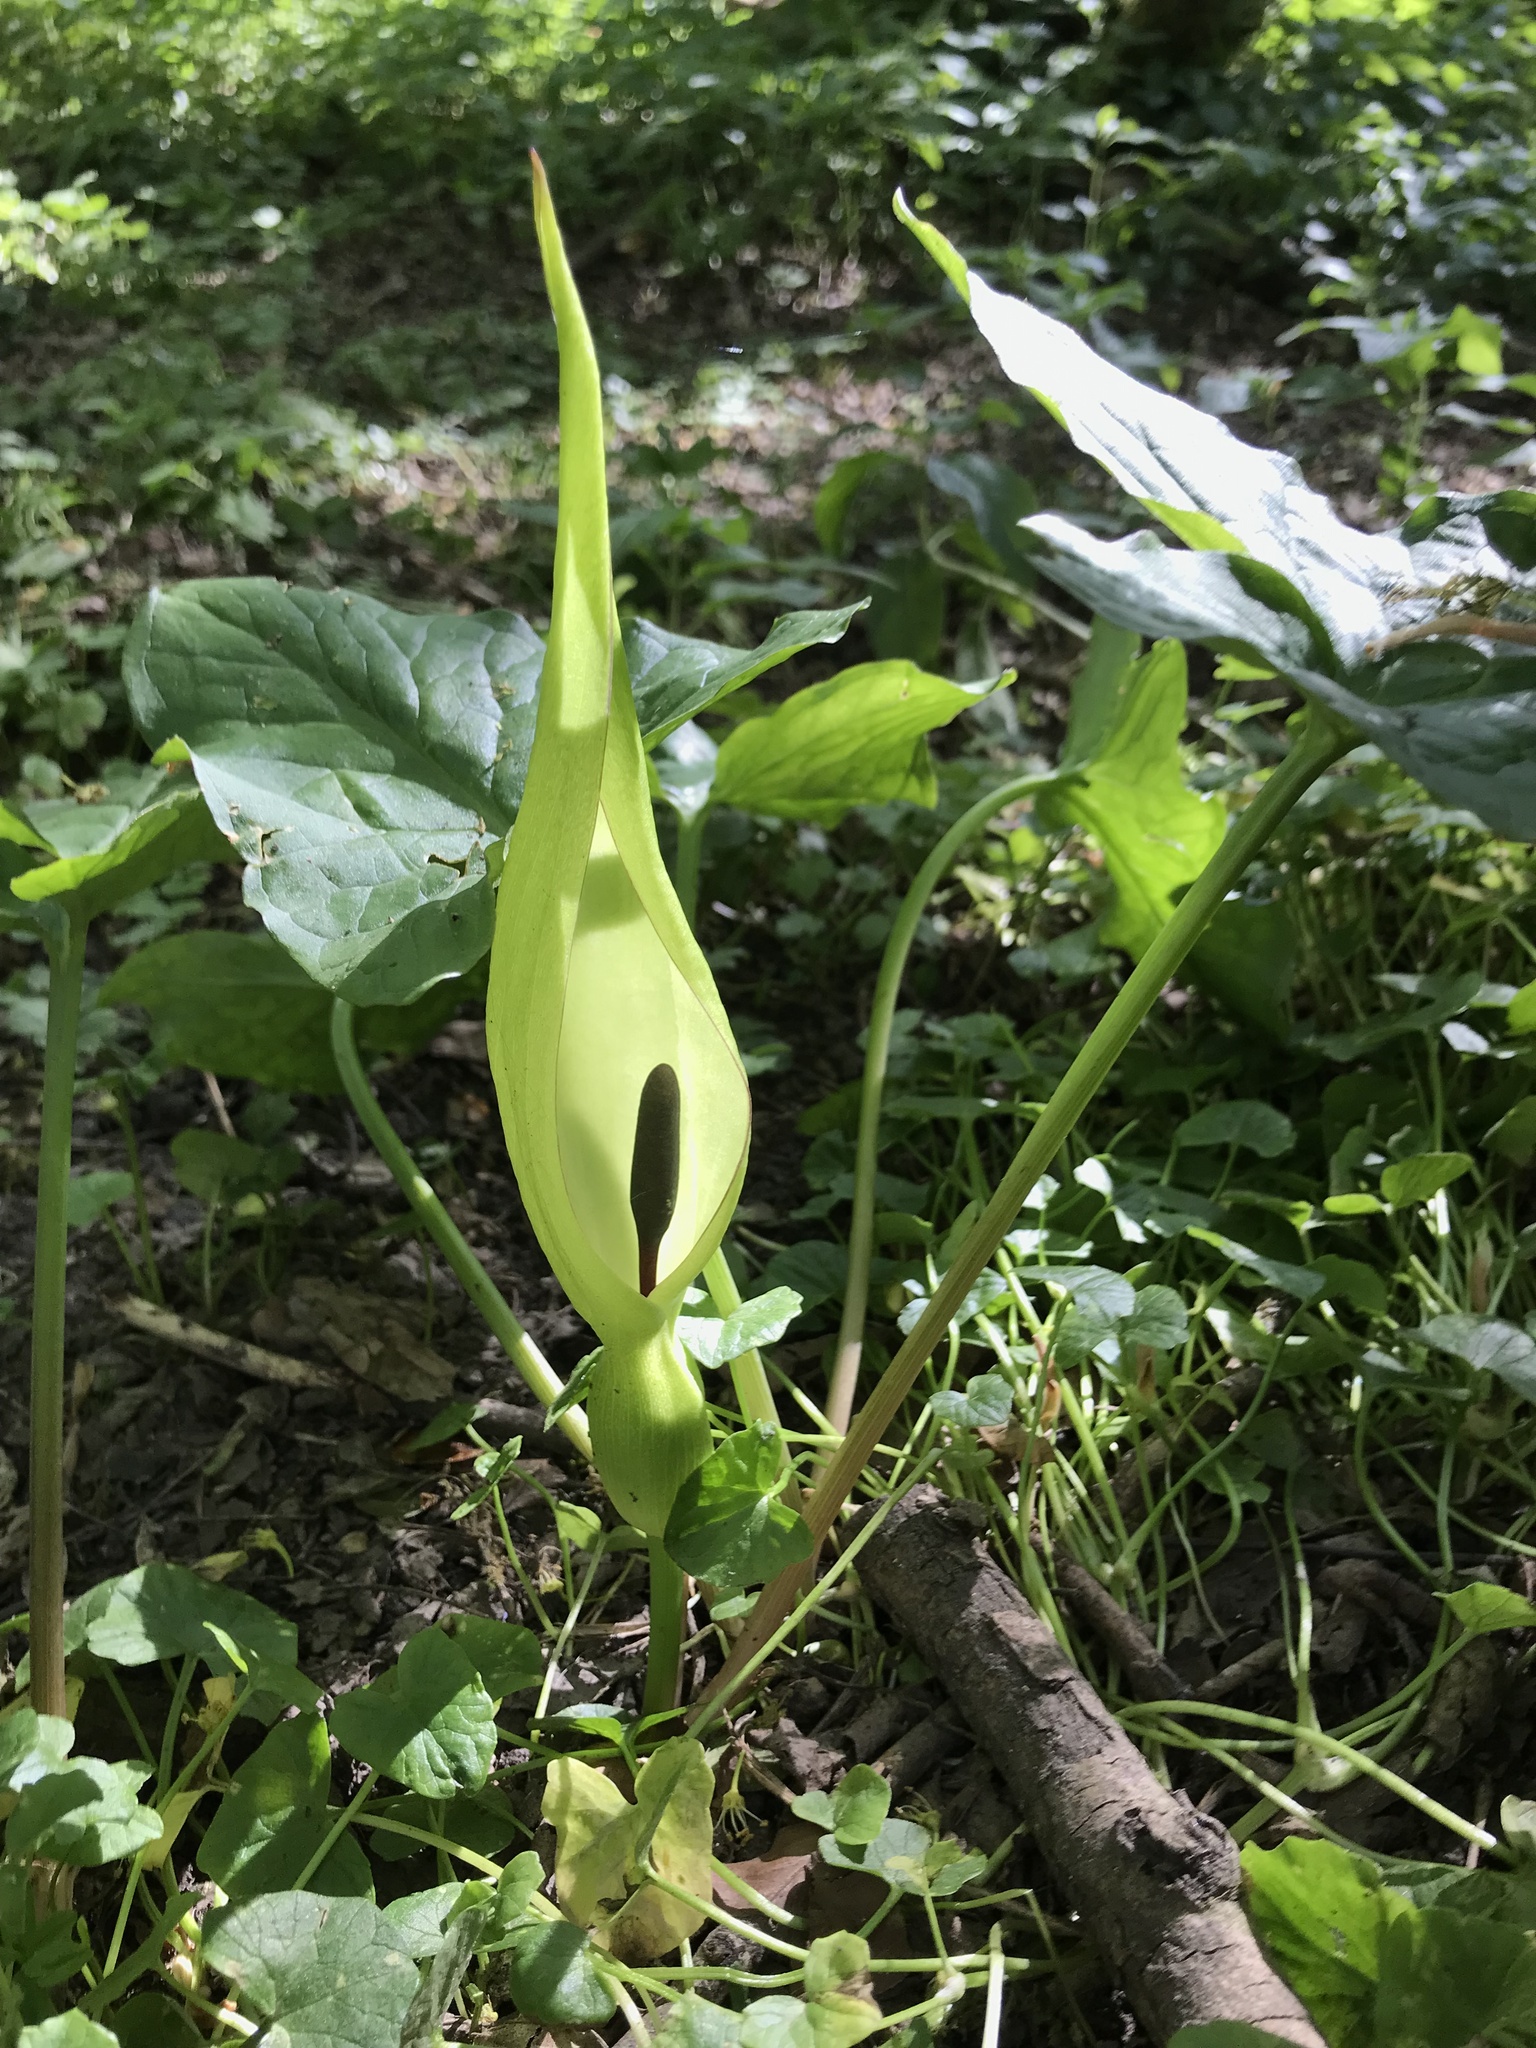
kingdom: Plantae
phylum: Tracheophyta
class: Liliopsida
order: Alismatales
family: Araceae
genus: Arum
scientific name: Arum maculatum
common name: Lords-and-ladies
